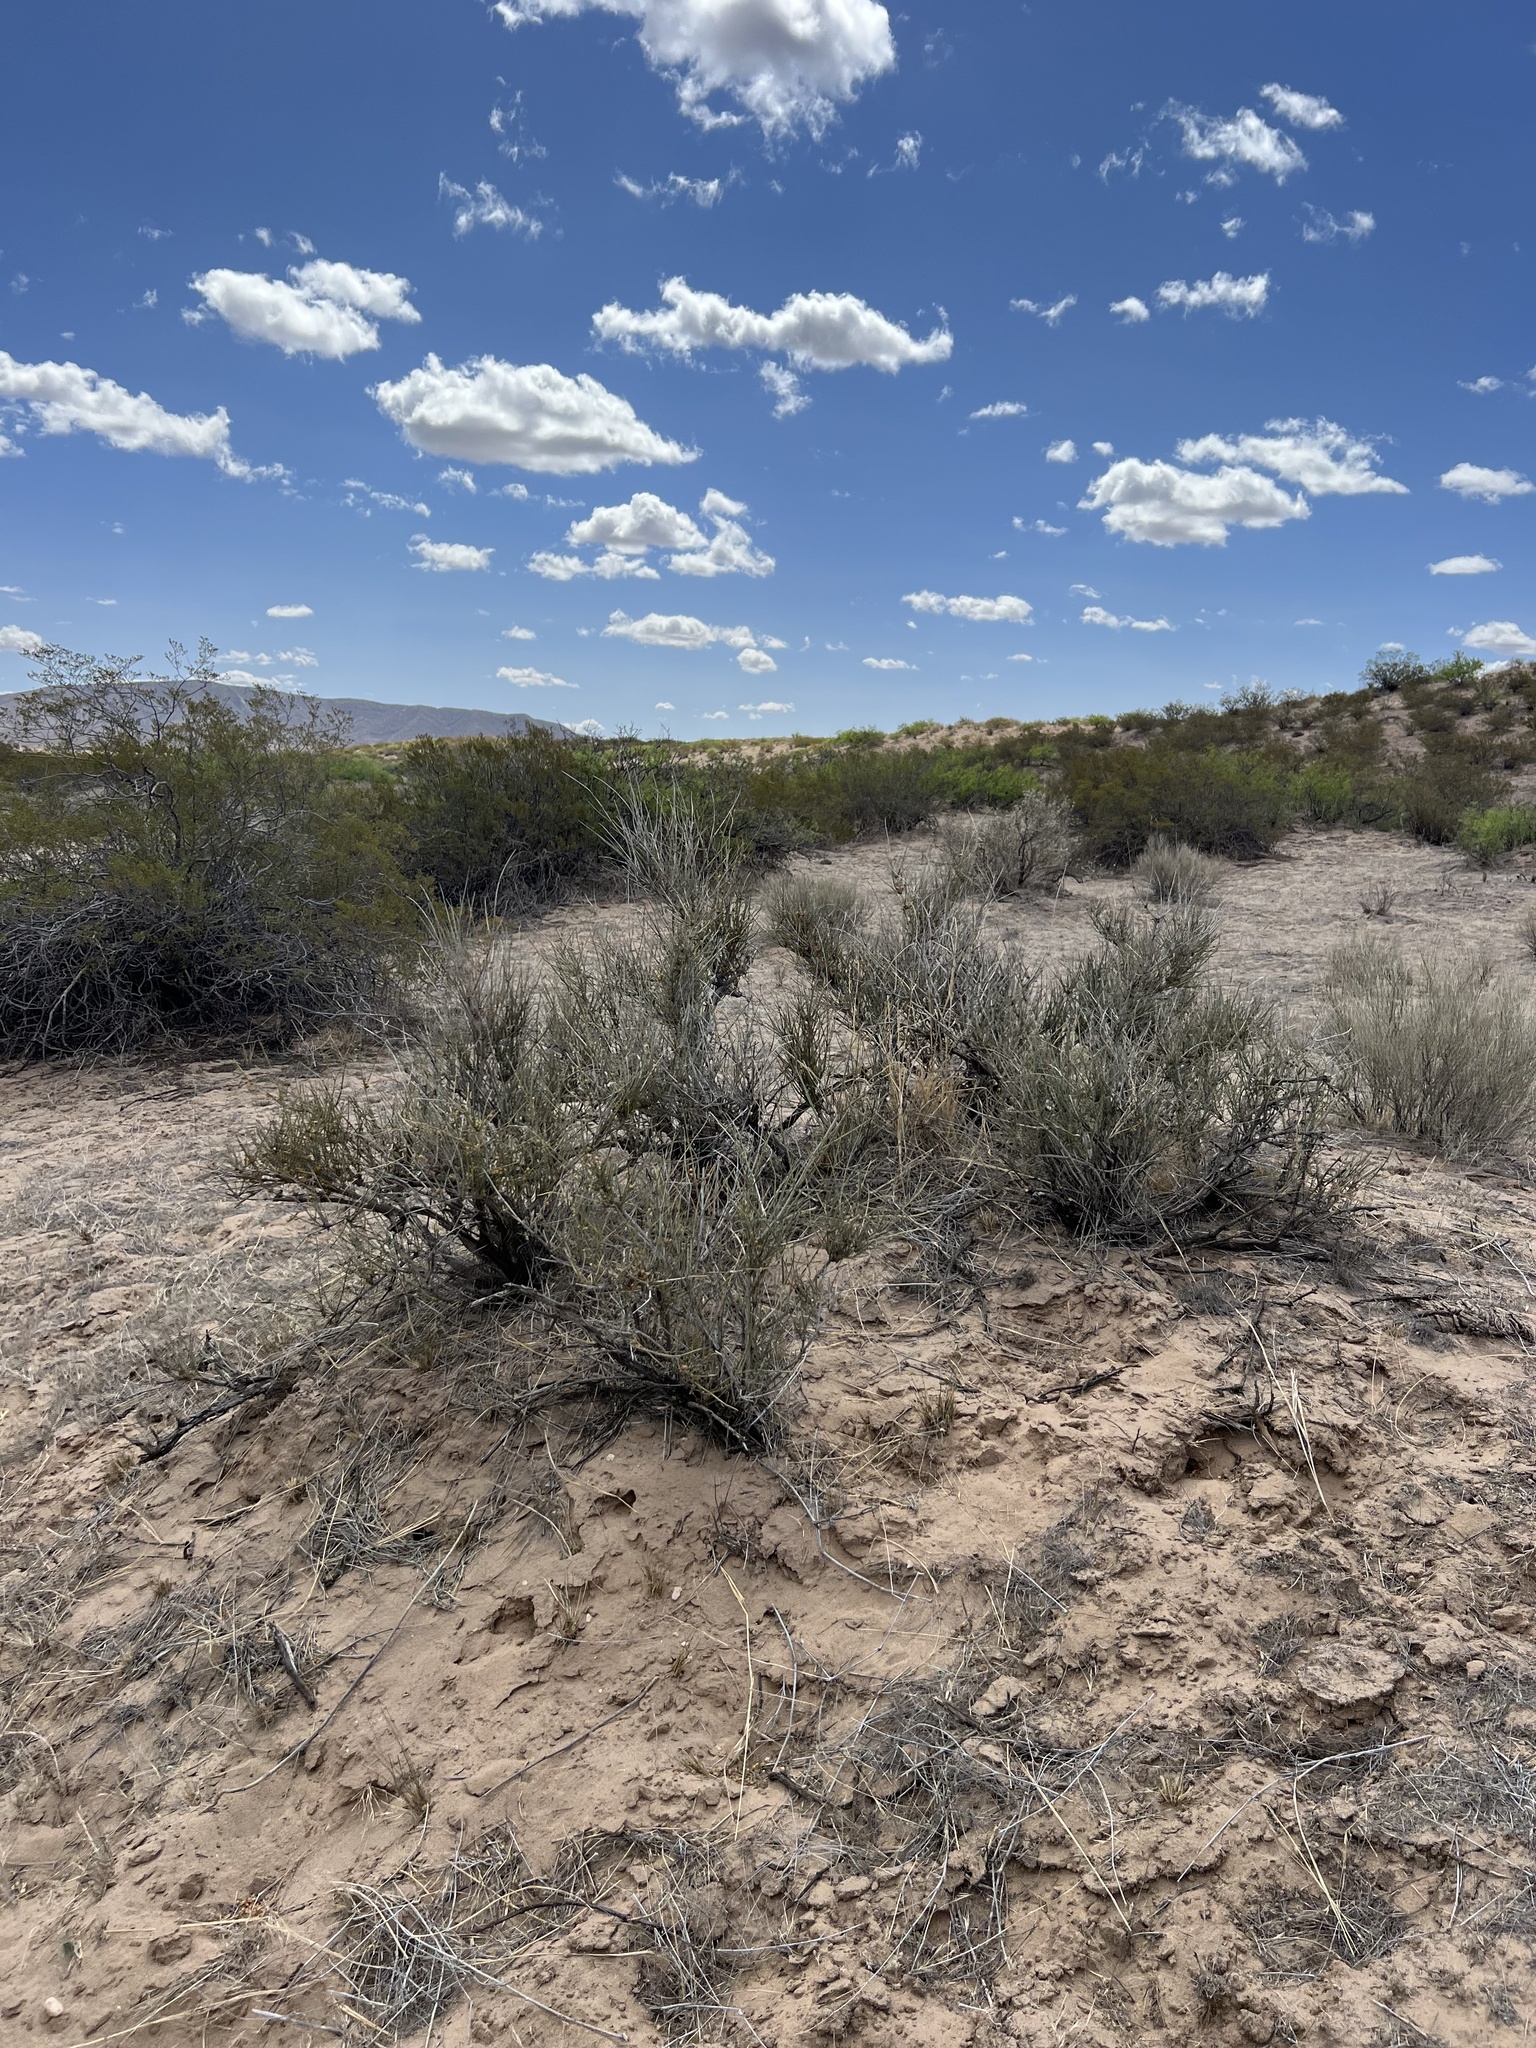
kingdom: Plantae
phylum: Tracheophyta
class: Gnetopsida
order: Ephedrales
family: Ephedraceae
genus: Ephedra
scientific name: Ephedra trifurca
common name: Mexican-tea
